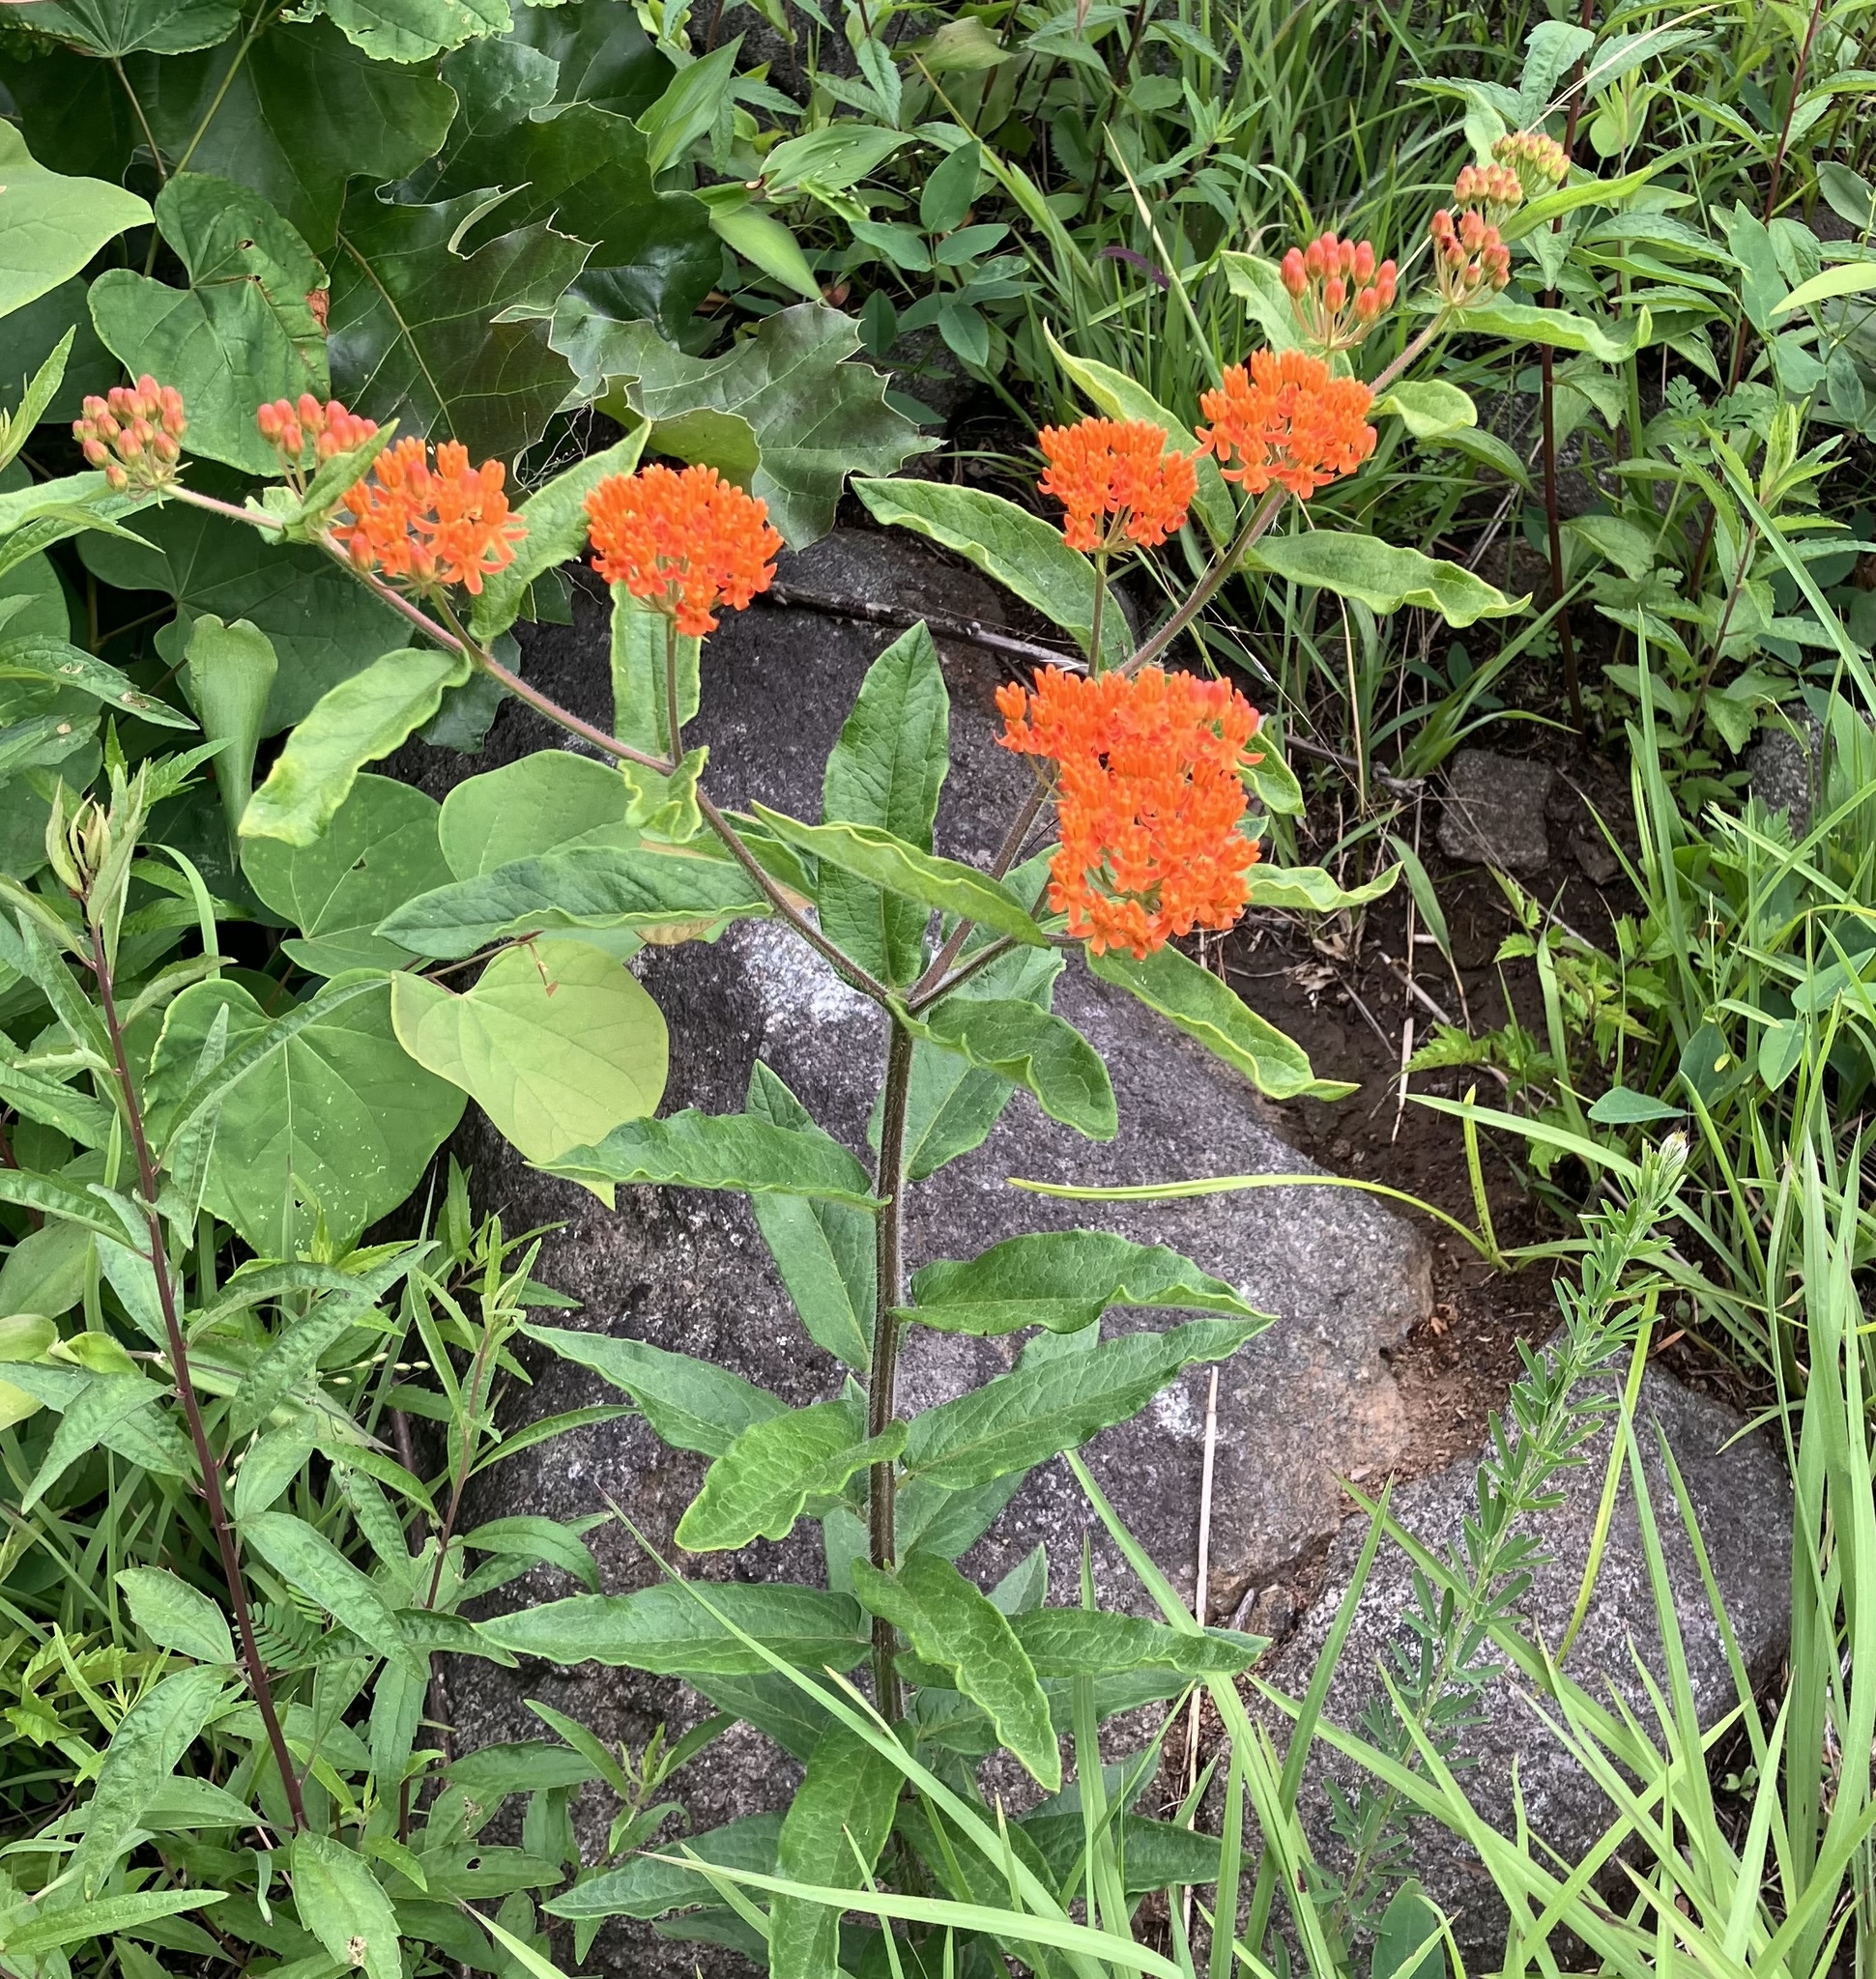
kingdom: Plantae
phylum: Tracheophyta
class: Magnoliopsida
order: Gentianales
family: Apocynaceae
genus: Asclepias
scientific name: Asclepias tuberosa
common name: Butterfly milkweed
